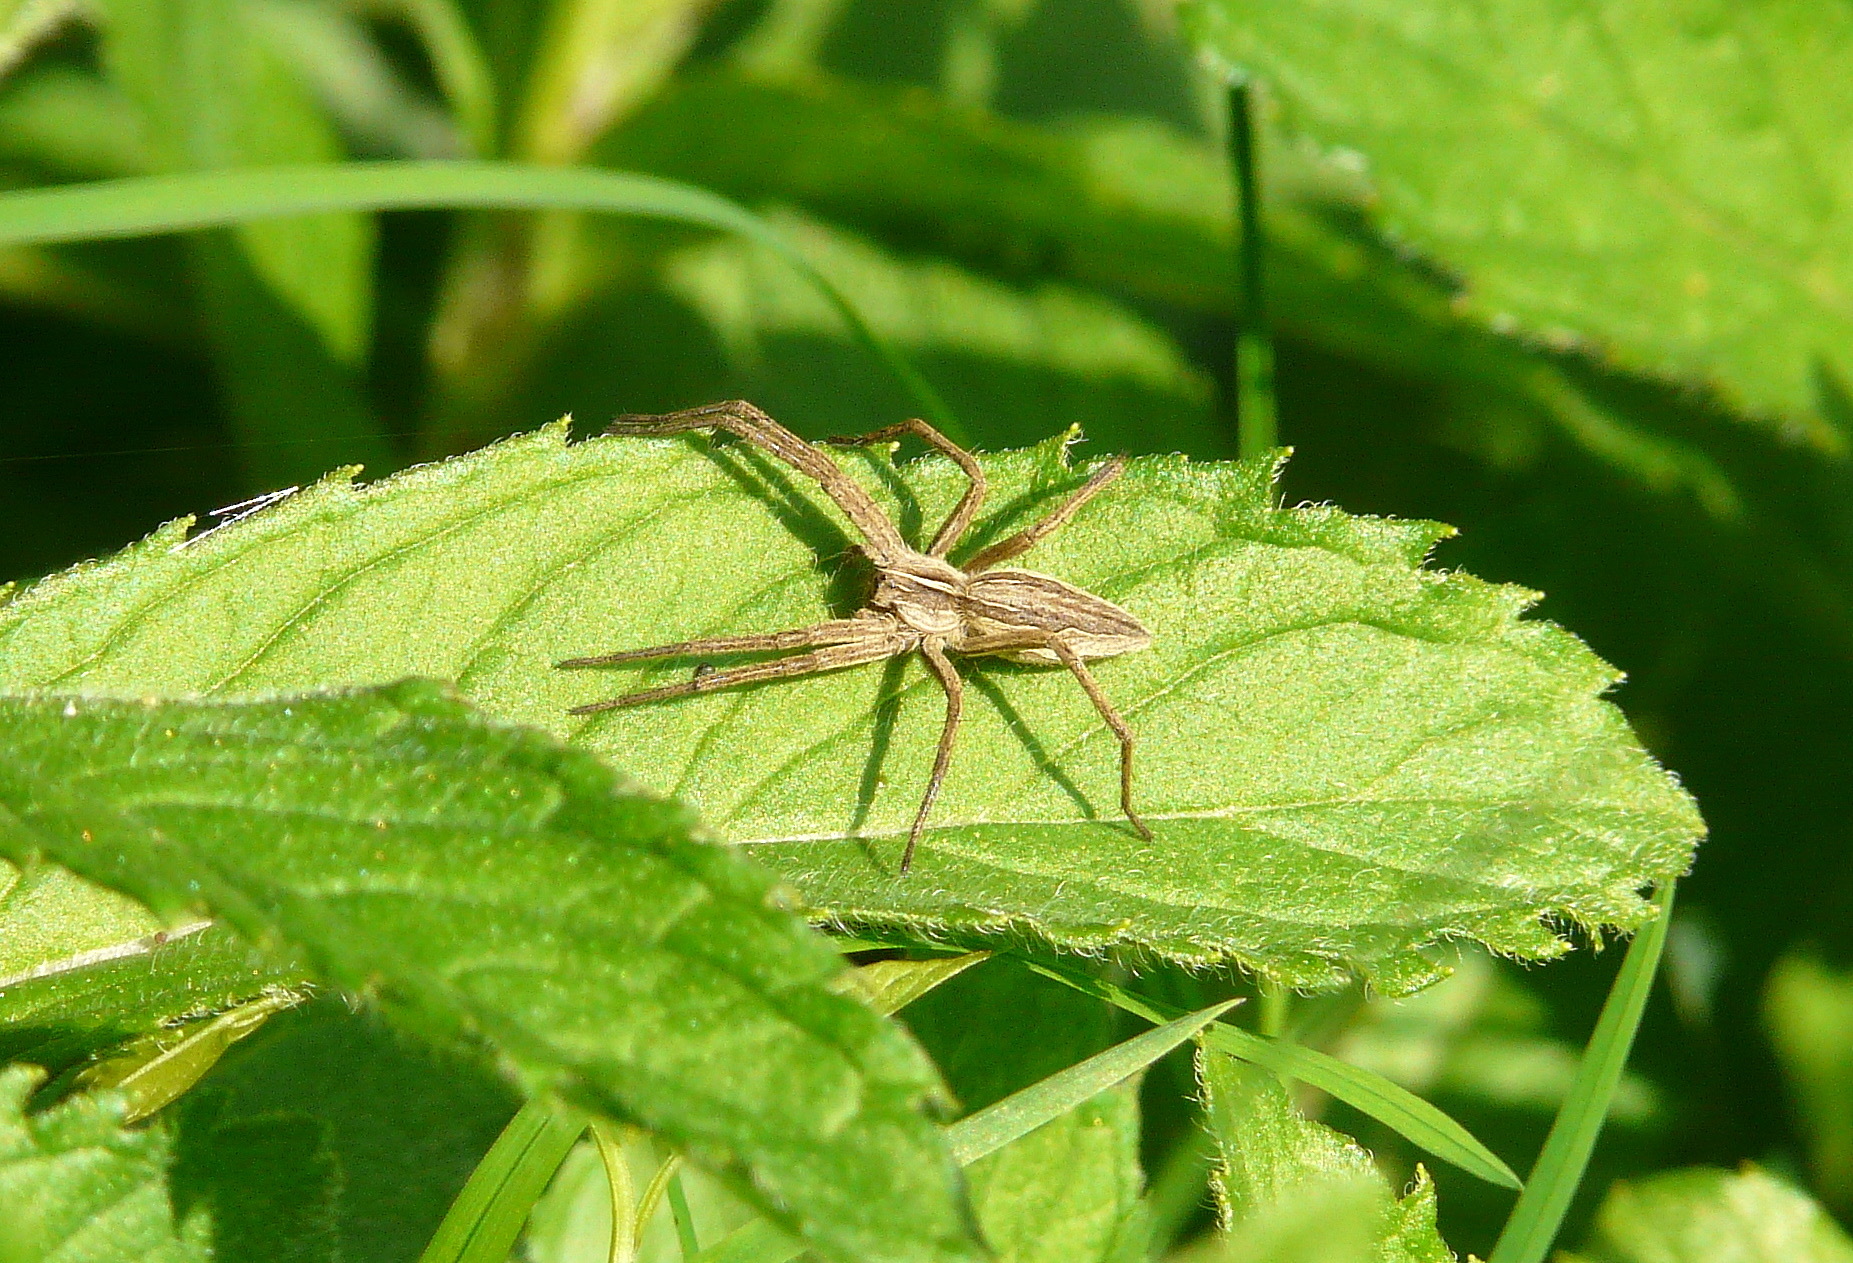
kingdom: Animalia
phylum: Arthropoda
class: Arachnida
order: Araneae
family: Pisauridae
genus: Pisaura
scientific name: Pisaura mirabilis
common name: Tent spider
